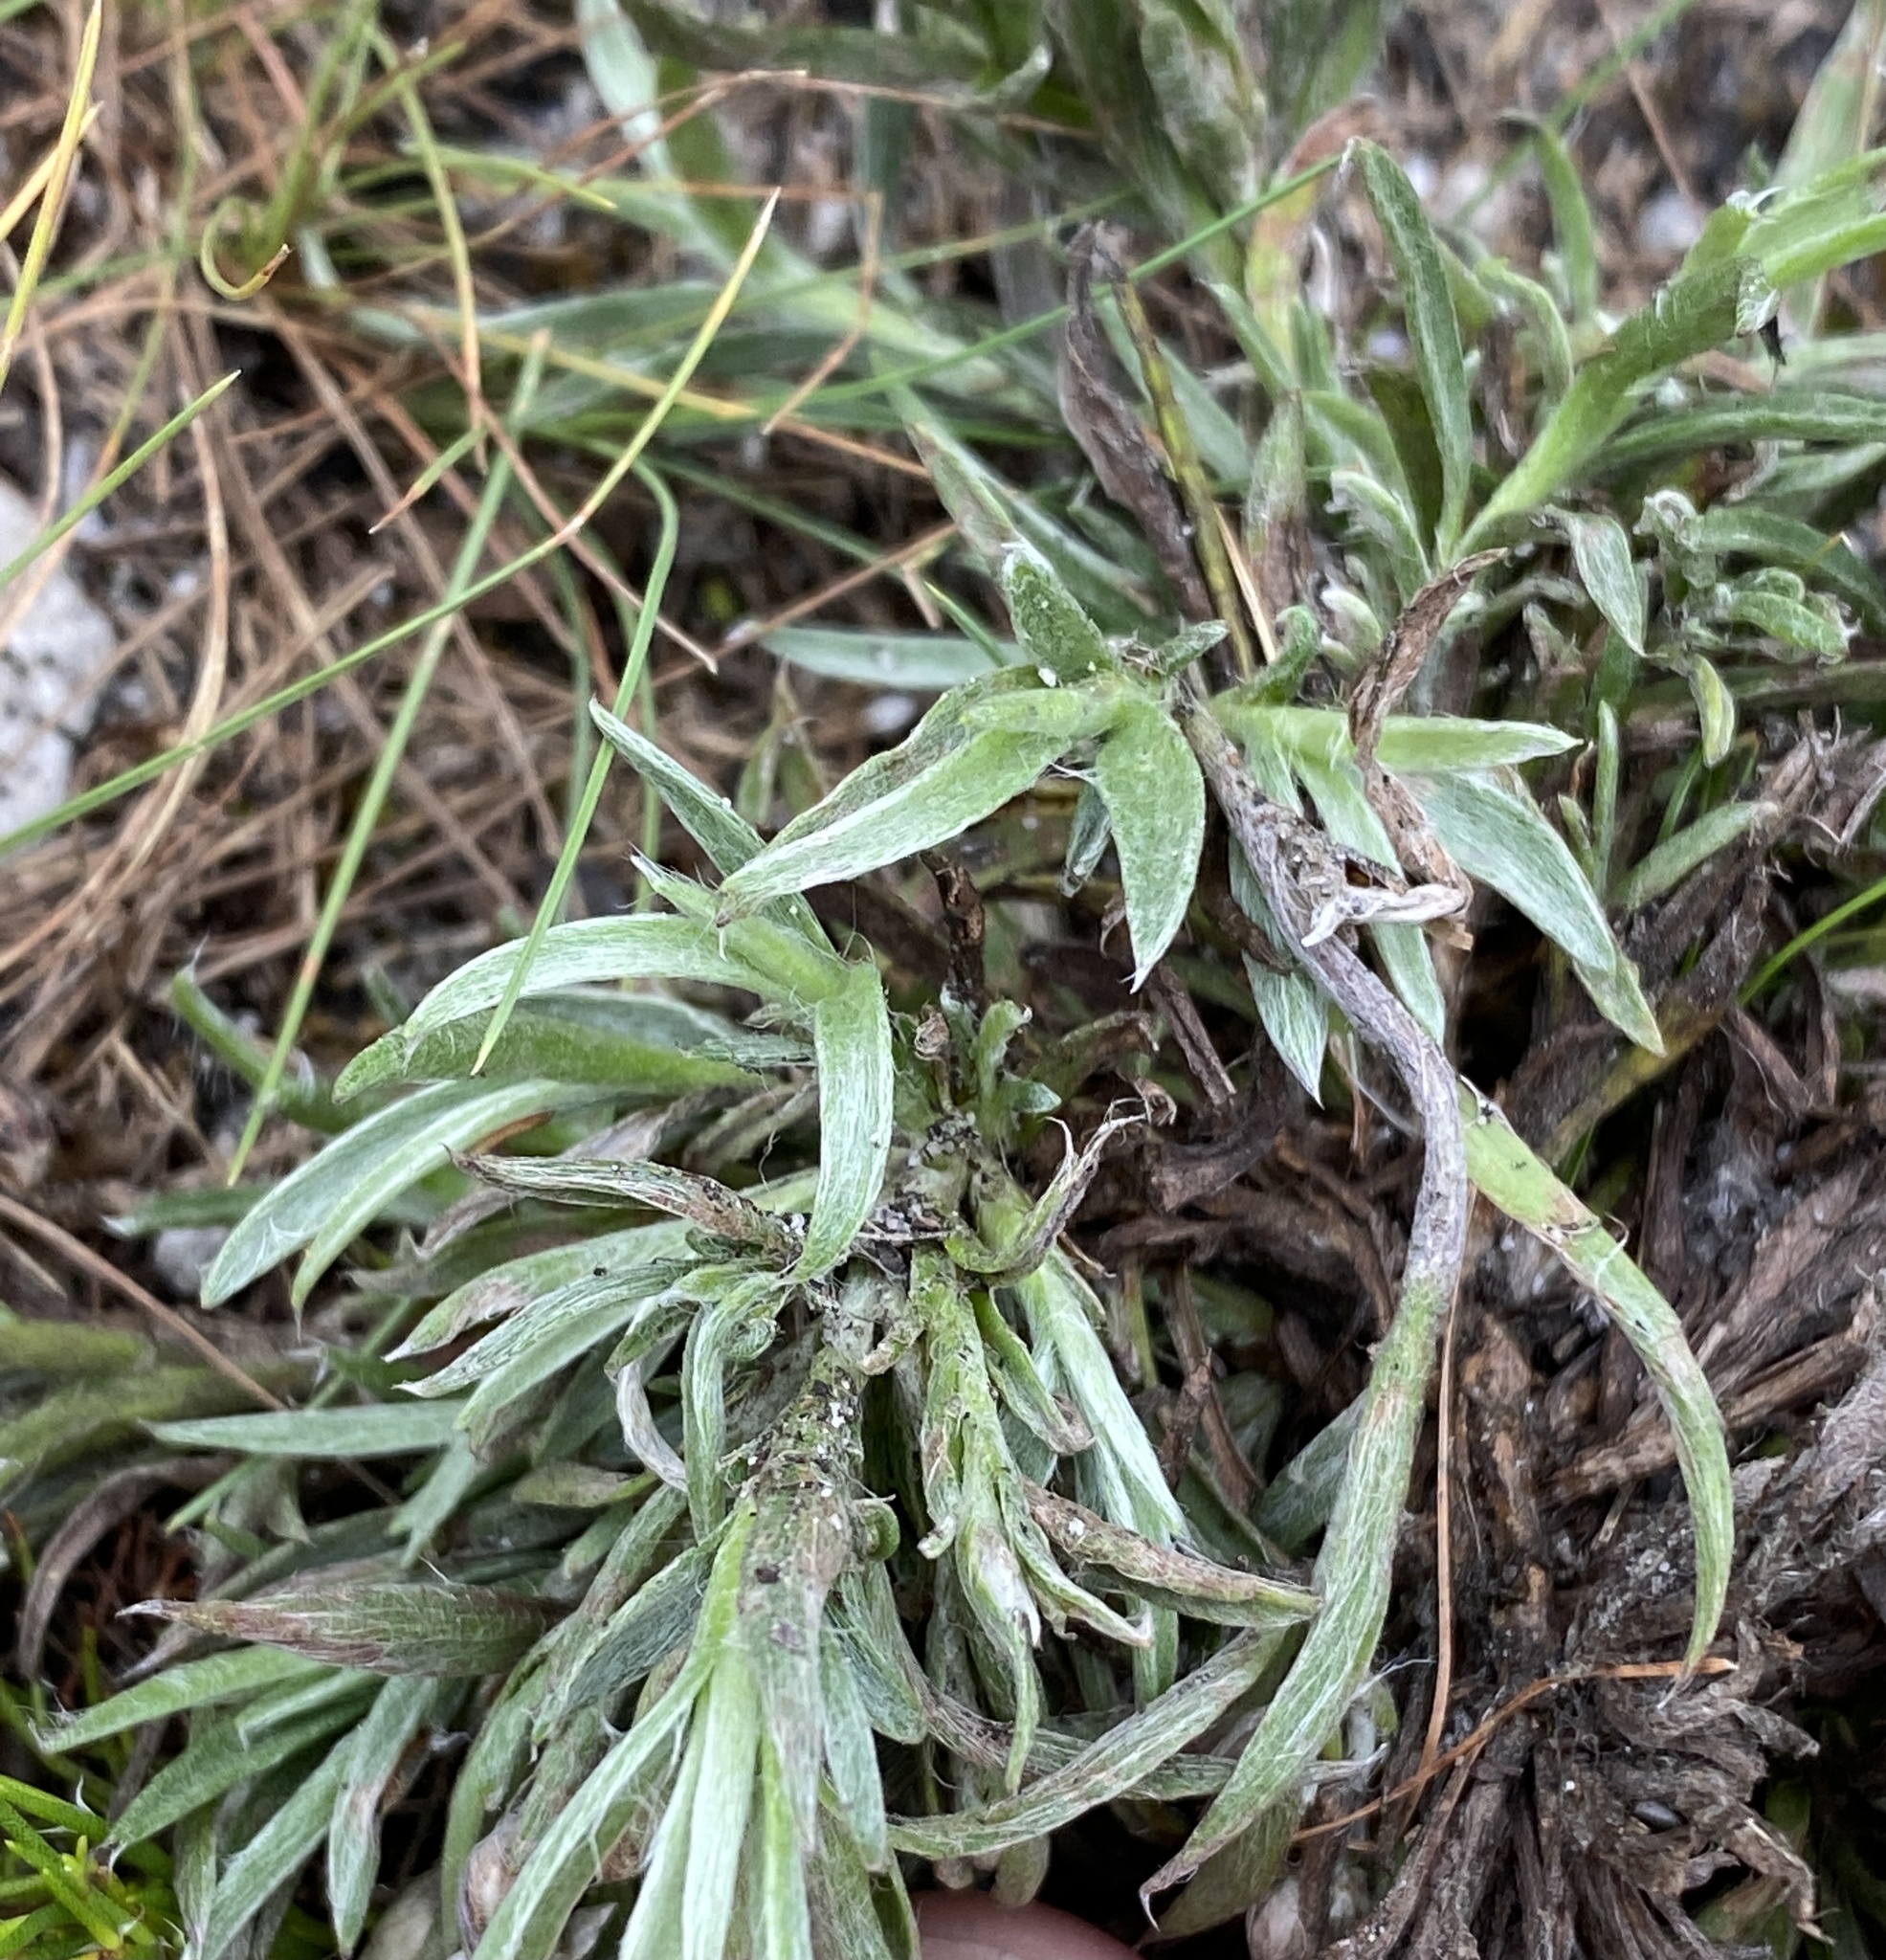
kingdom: Plantae
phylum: Tracheophyta
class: Magnoliopsida
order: Asterales
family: Asteraceae
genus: Achyranthemum
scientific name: Achyranthemum paniculatum
